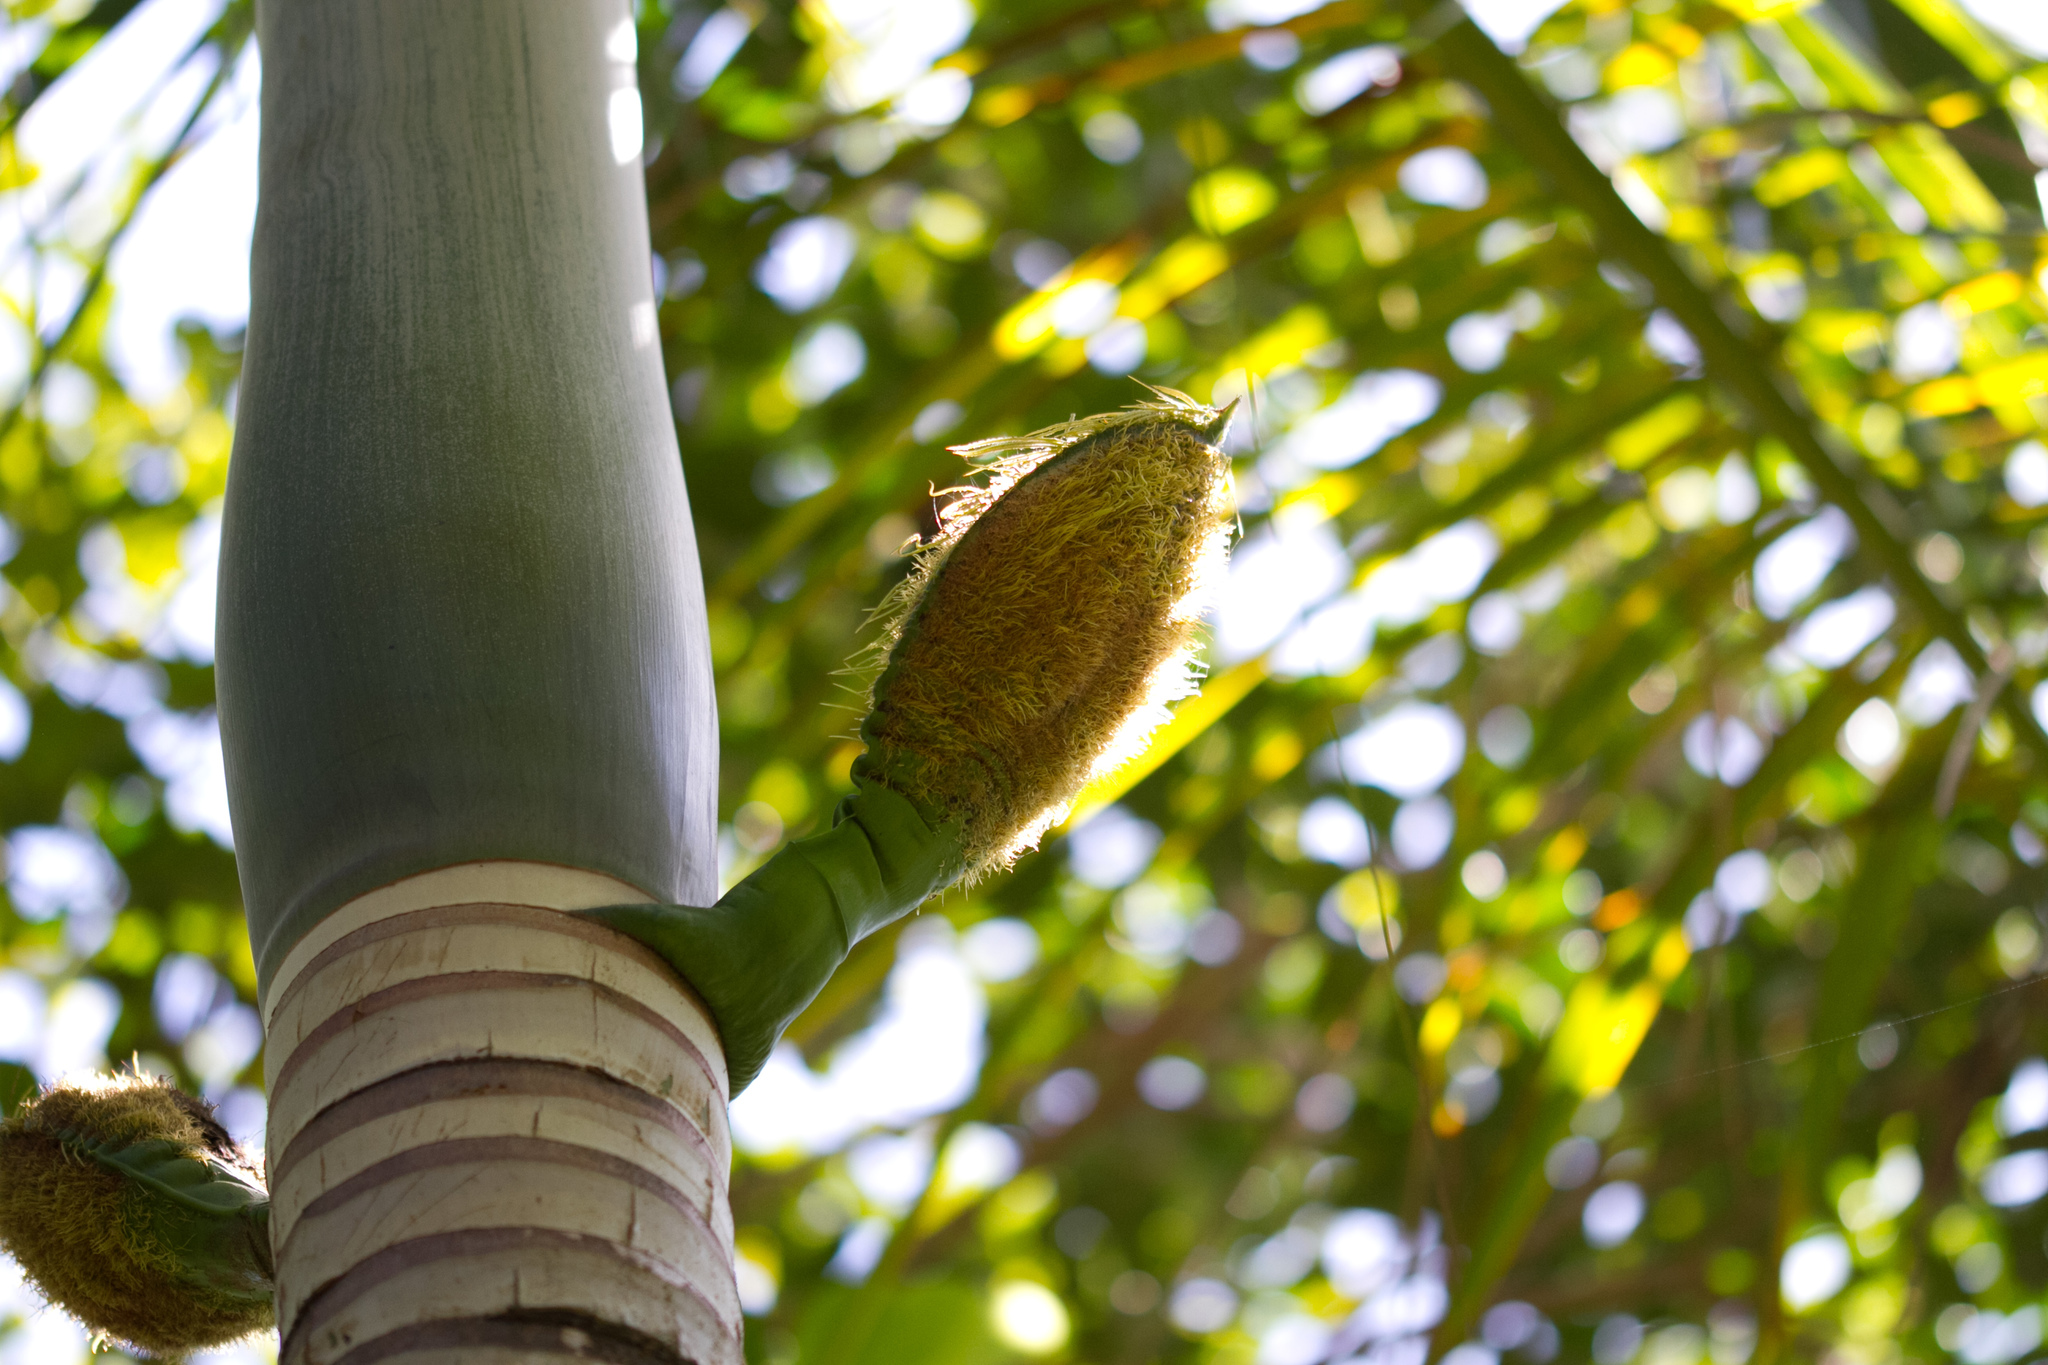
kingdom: Plantae
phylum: Tracheophyta
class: Liliopsida
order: Arecales
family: Arecaceae
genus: Deckenia
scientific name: Deckenia nobilis
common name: Cabbage palm
